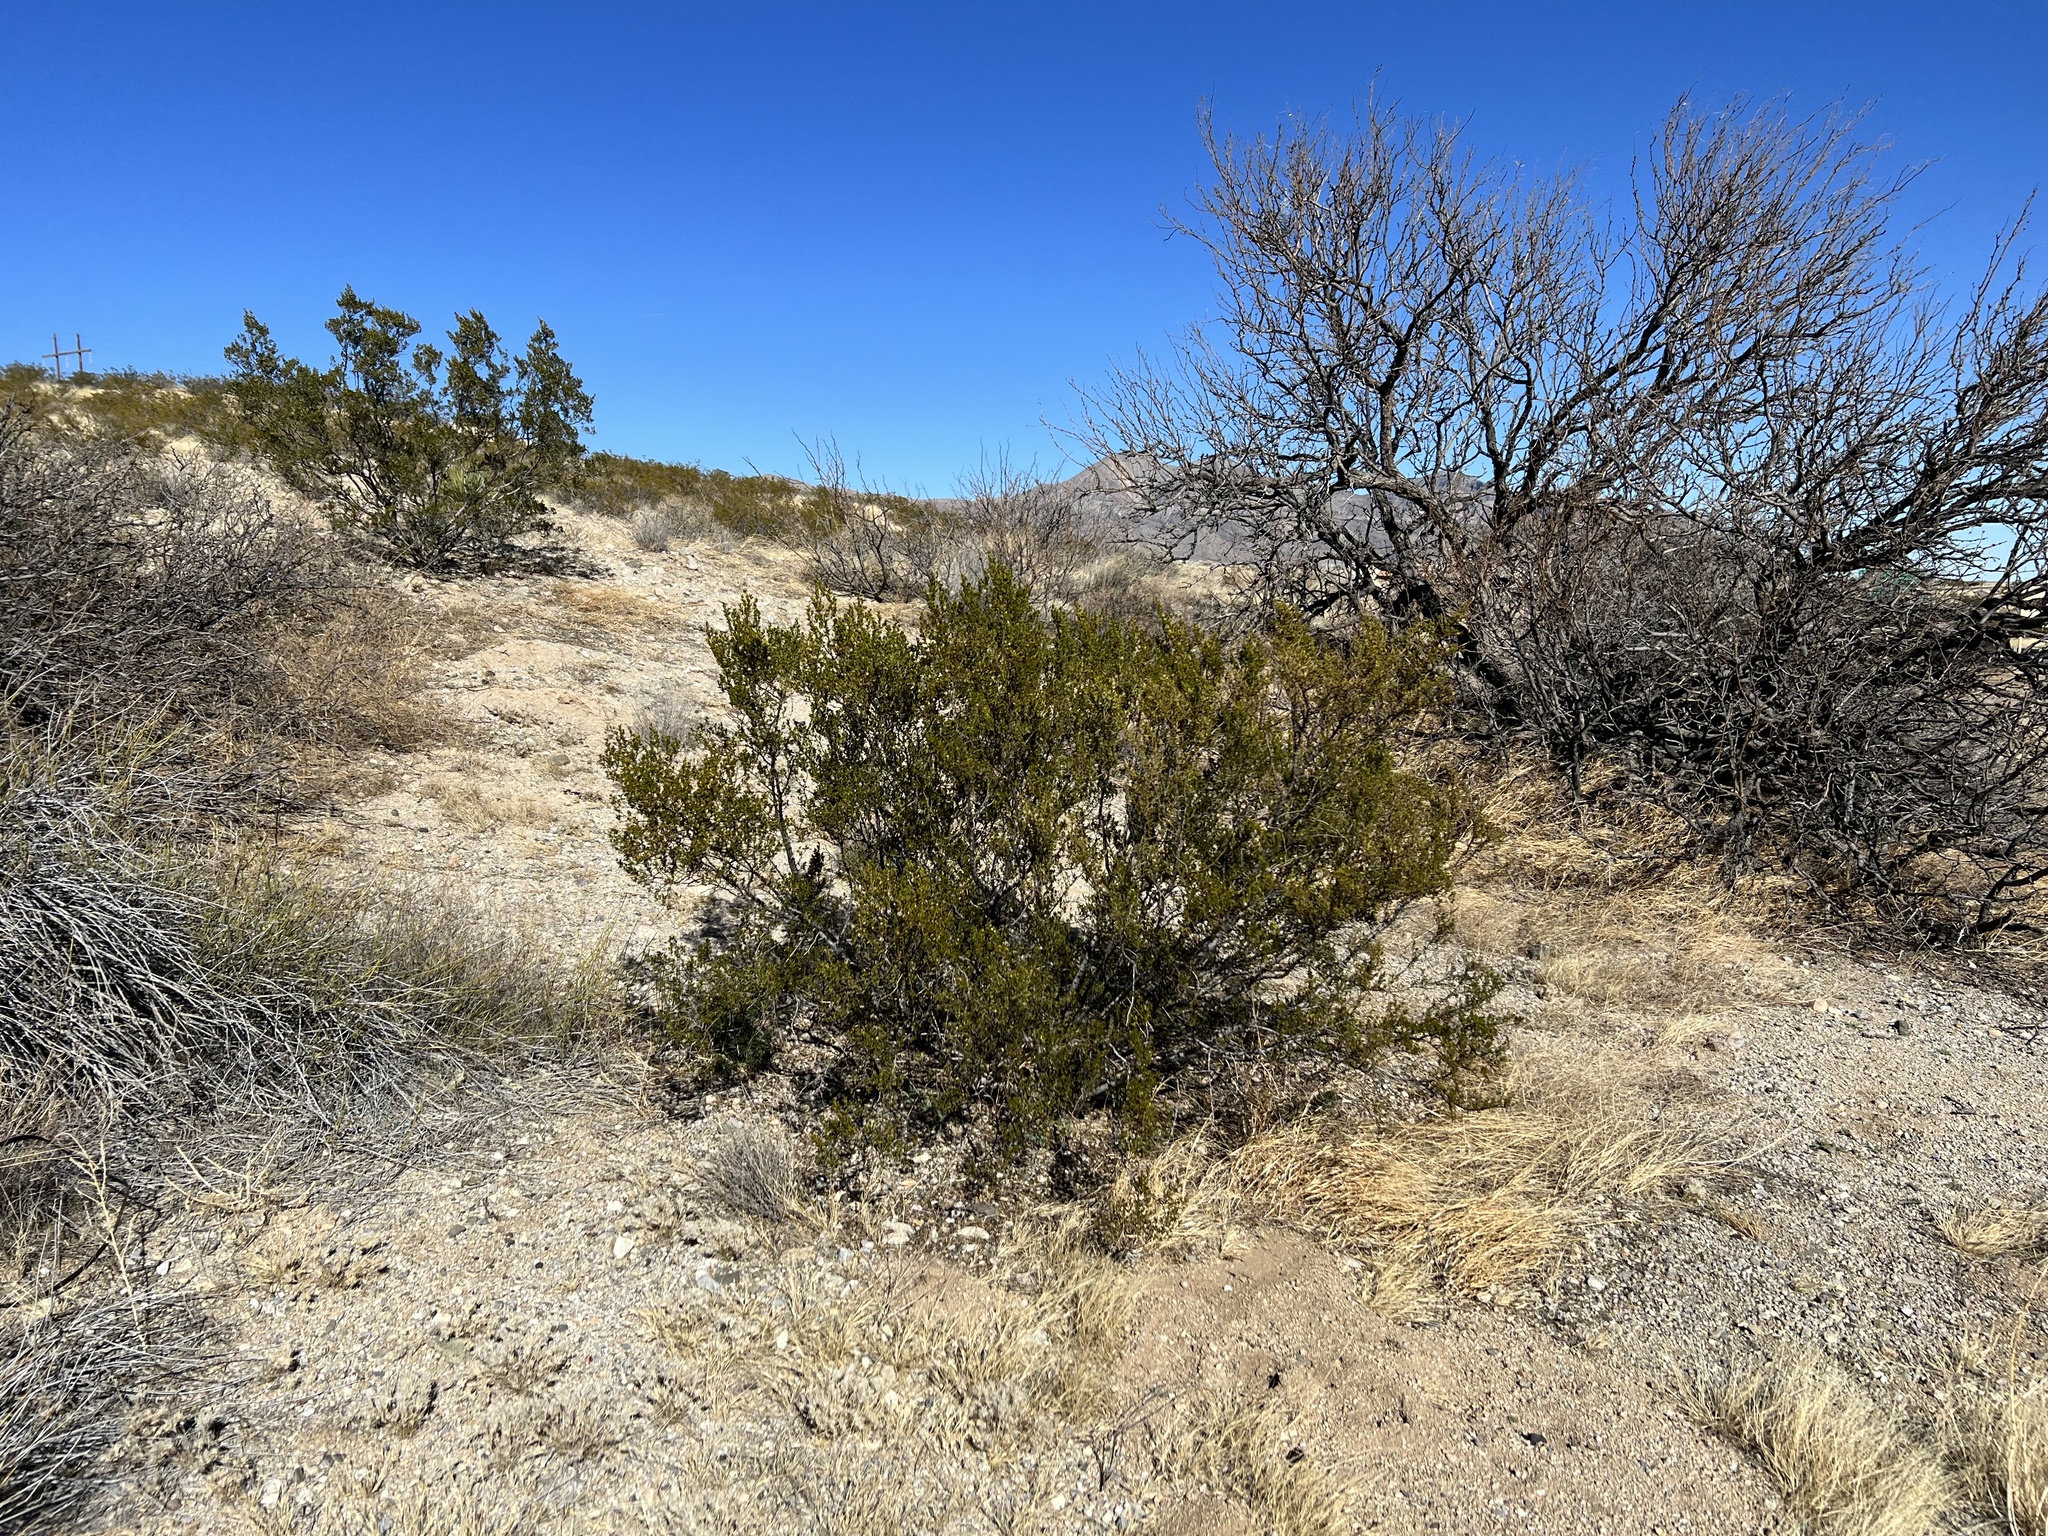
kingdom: Plantae
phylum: Tracheophyta
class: Magnoliopsida
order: Zygophyllales
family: Zygophyllaceae
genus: Larrea
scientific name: Larrea tridentata
